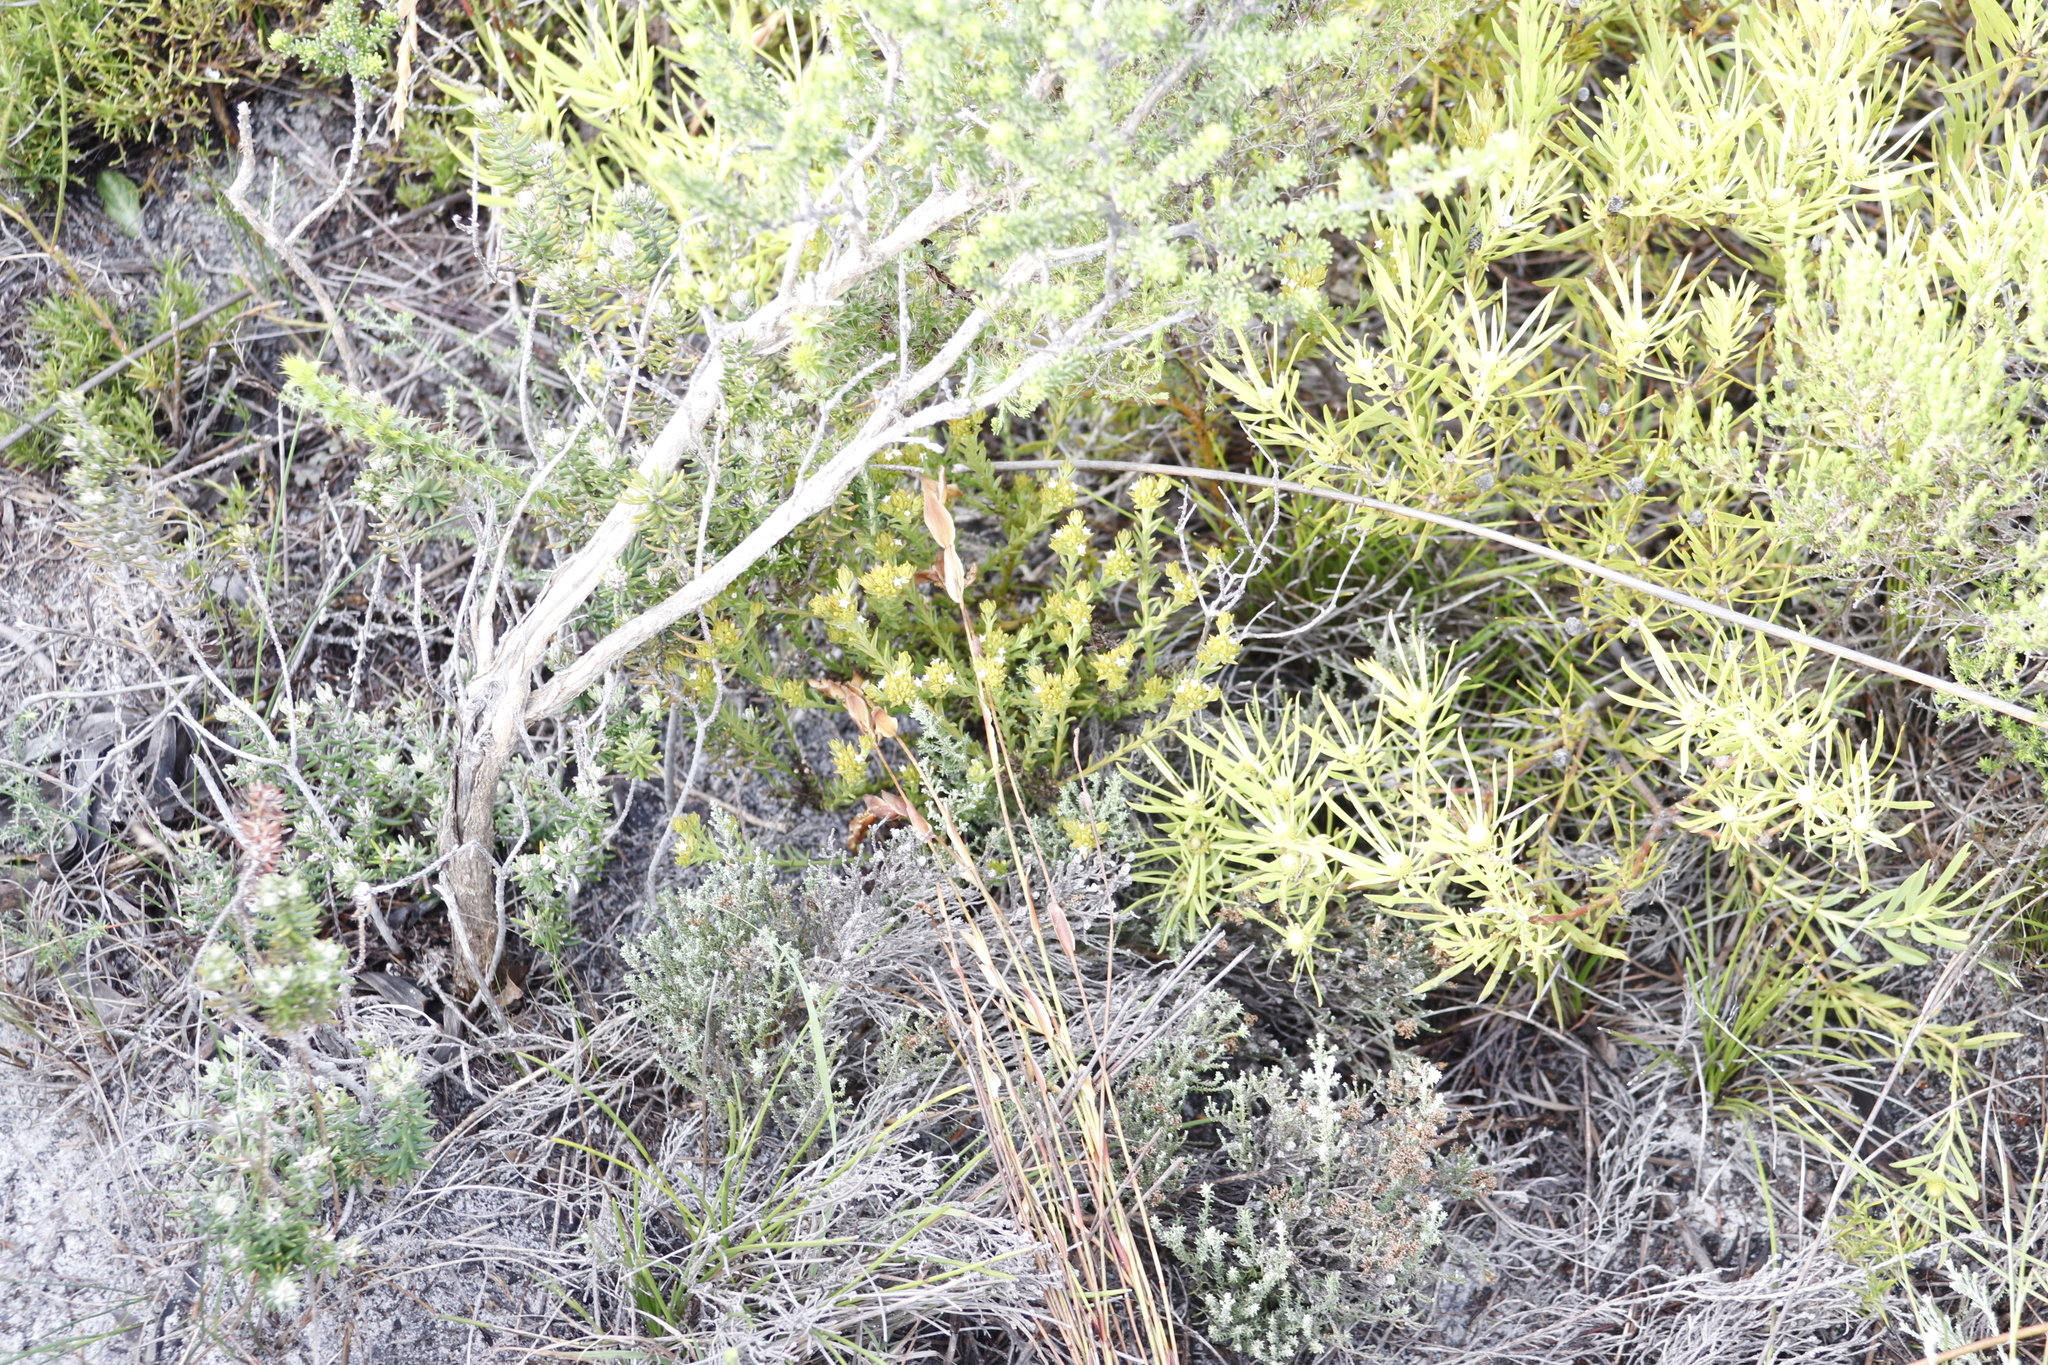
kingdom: Plantae
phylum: Tracheophyta
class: Magnoliopsida
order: Proteales
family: Proteaceae
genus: Leucadendron
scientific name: Leucadendron salignum
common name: Common sunshine conebush
